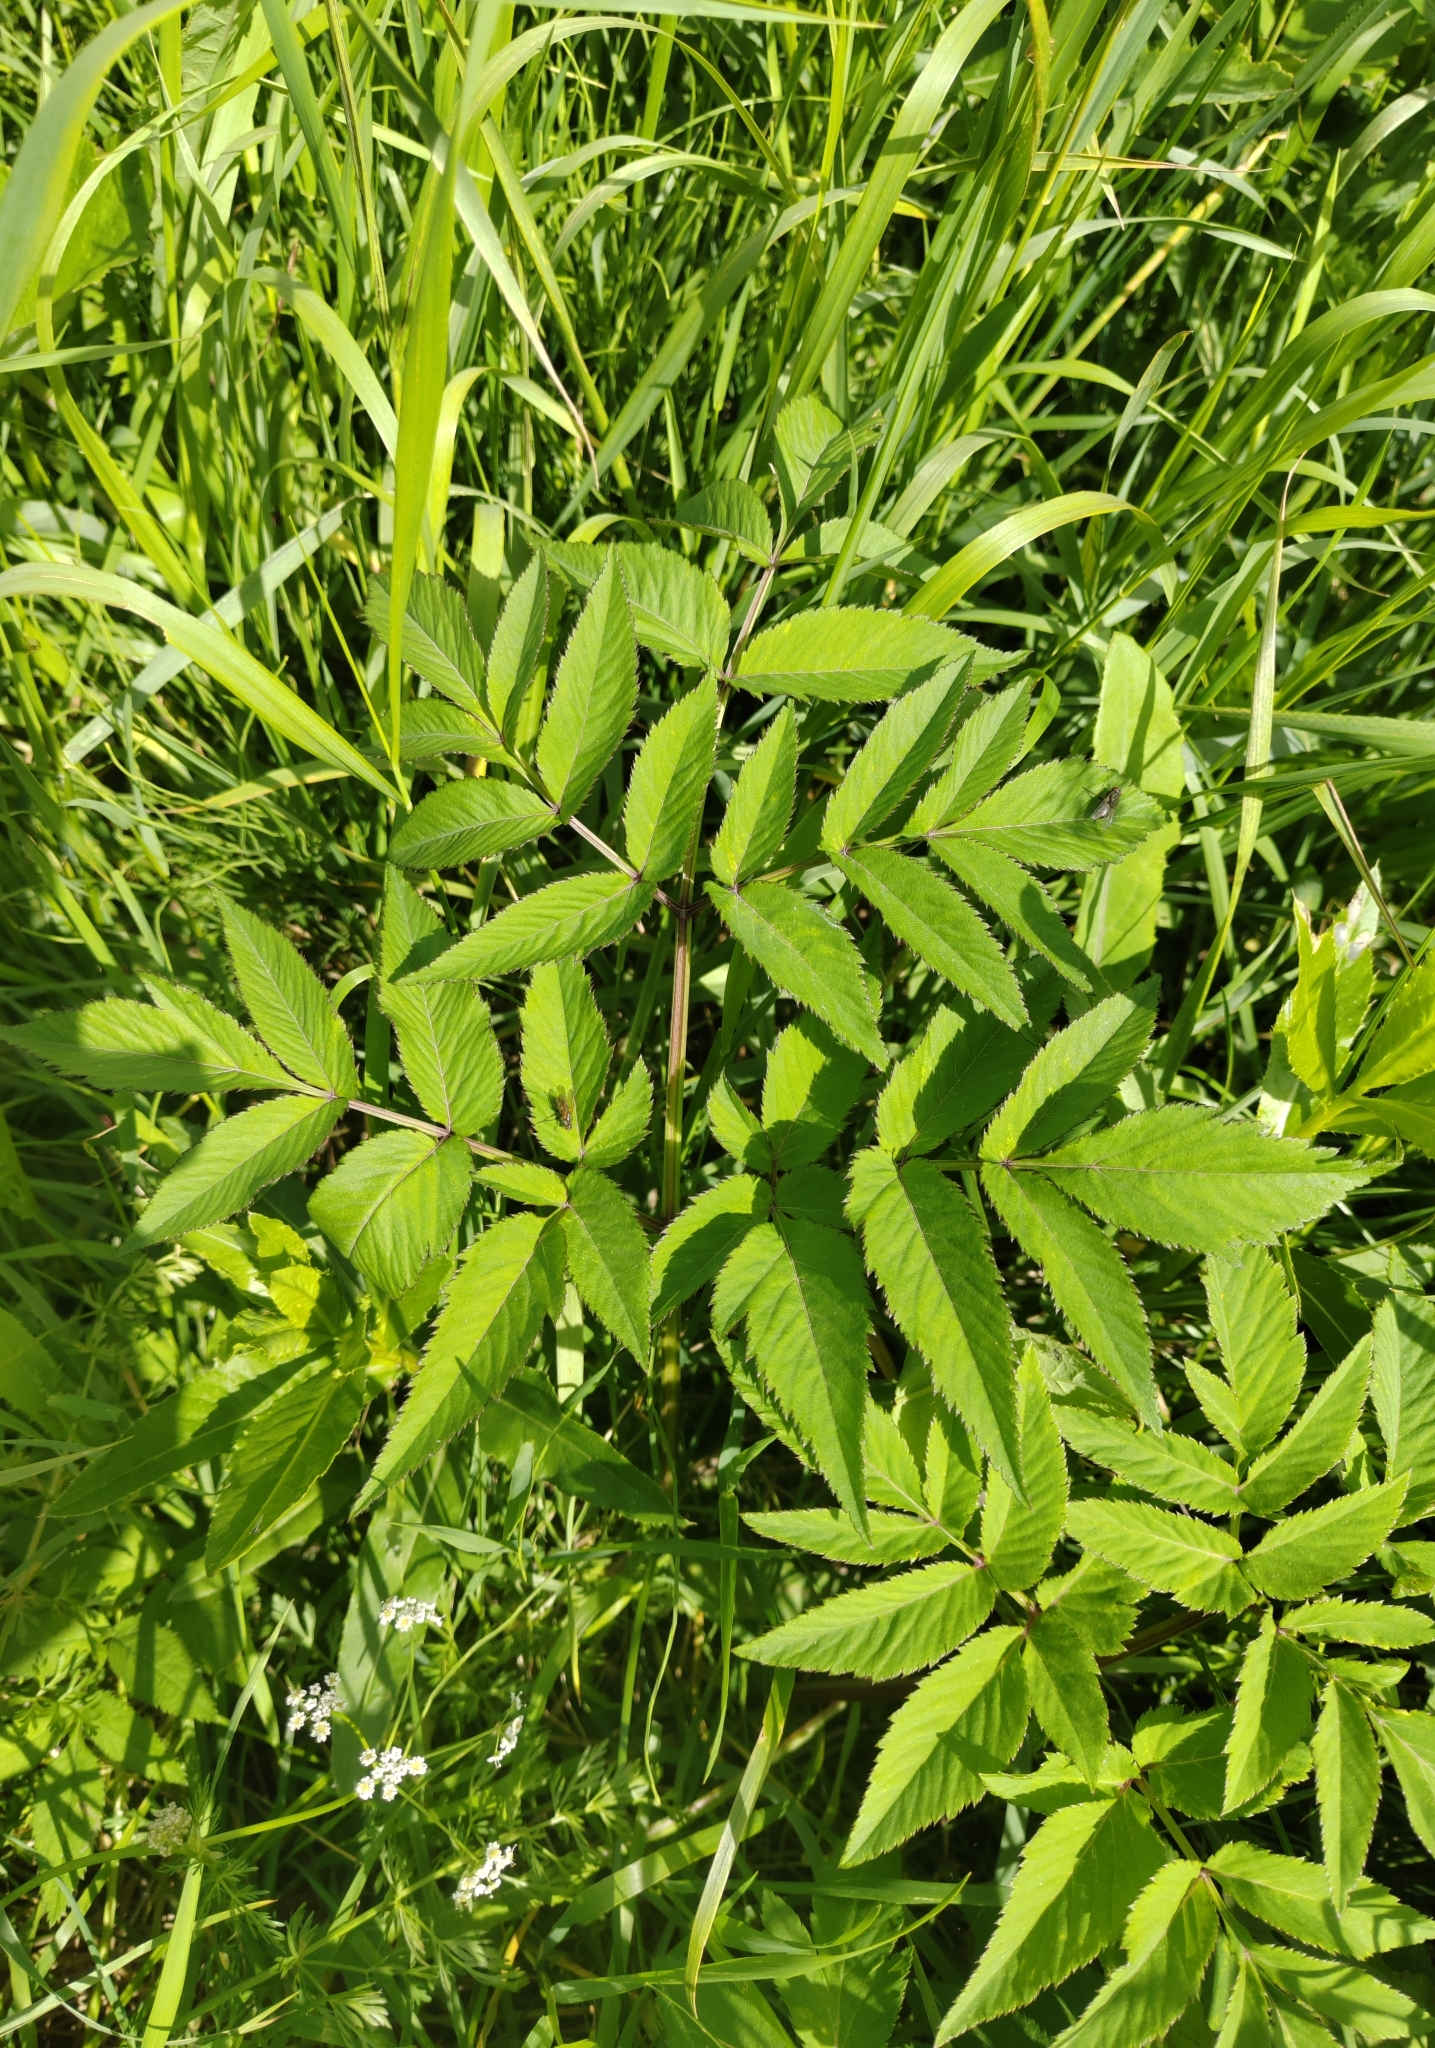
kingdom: Plantae
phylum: Tracheophyta
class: Magnoliopsida
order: Apiales
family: Apiaceae
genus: Angelica
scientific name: Angelica sylvestris
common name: Wild angelica
